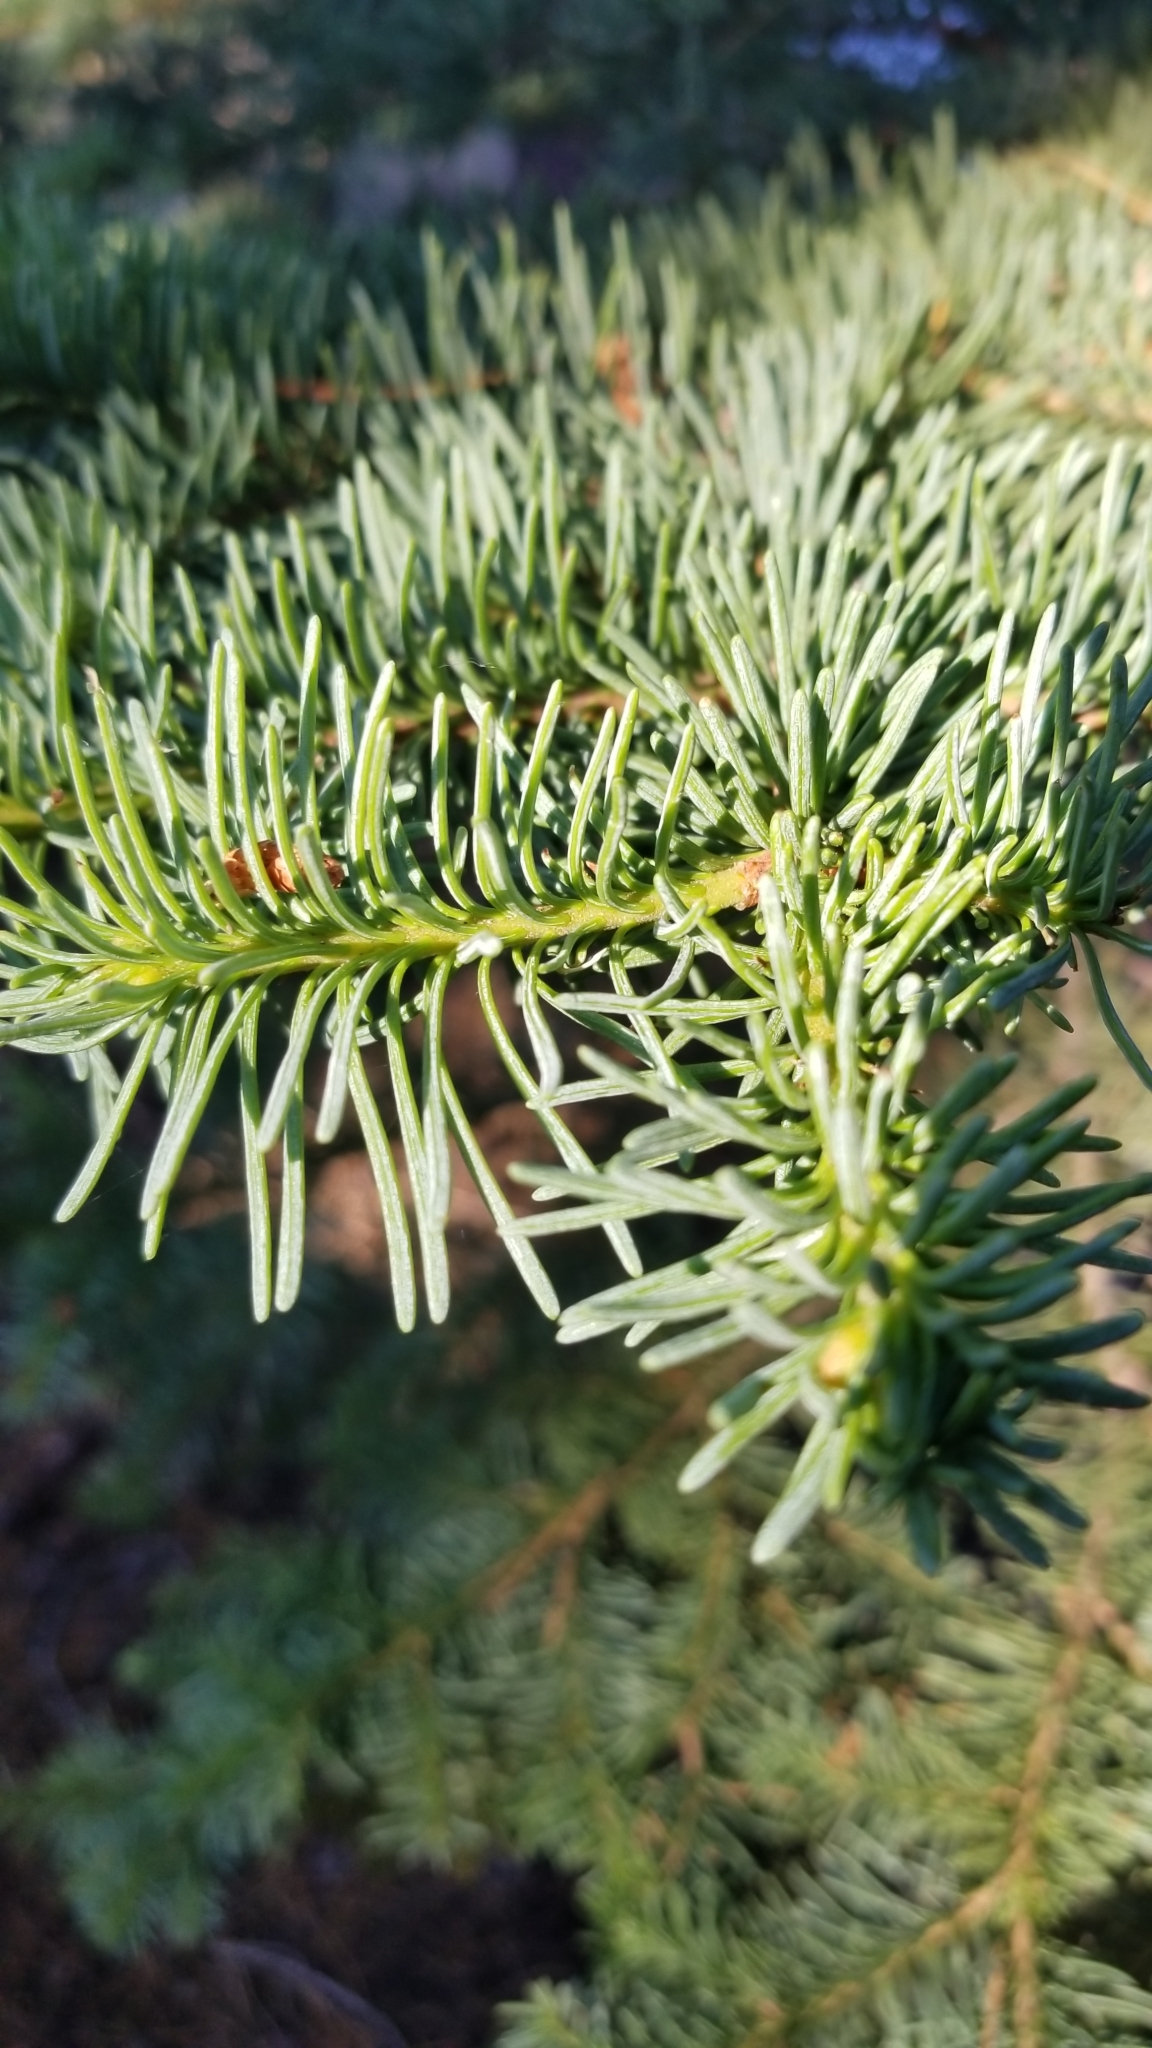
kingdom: Plantae
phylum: Tracheophyta
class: Pinopsida
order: Pinales
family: Pinaceae
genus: Abies
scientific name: Abies magnifica bis
